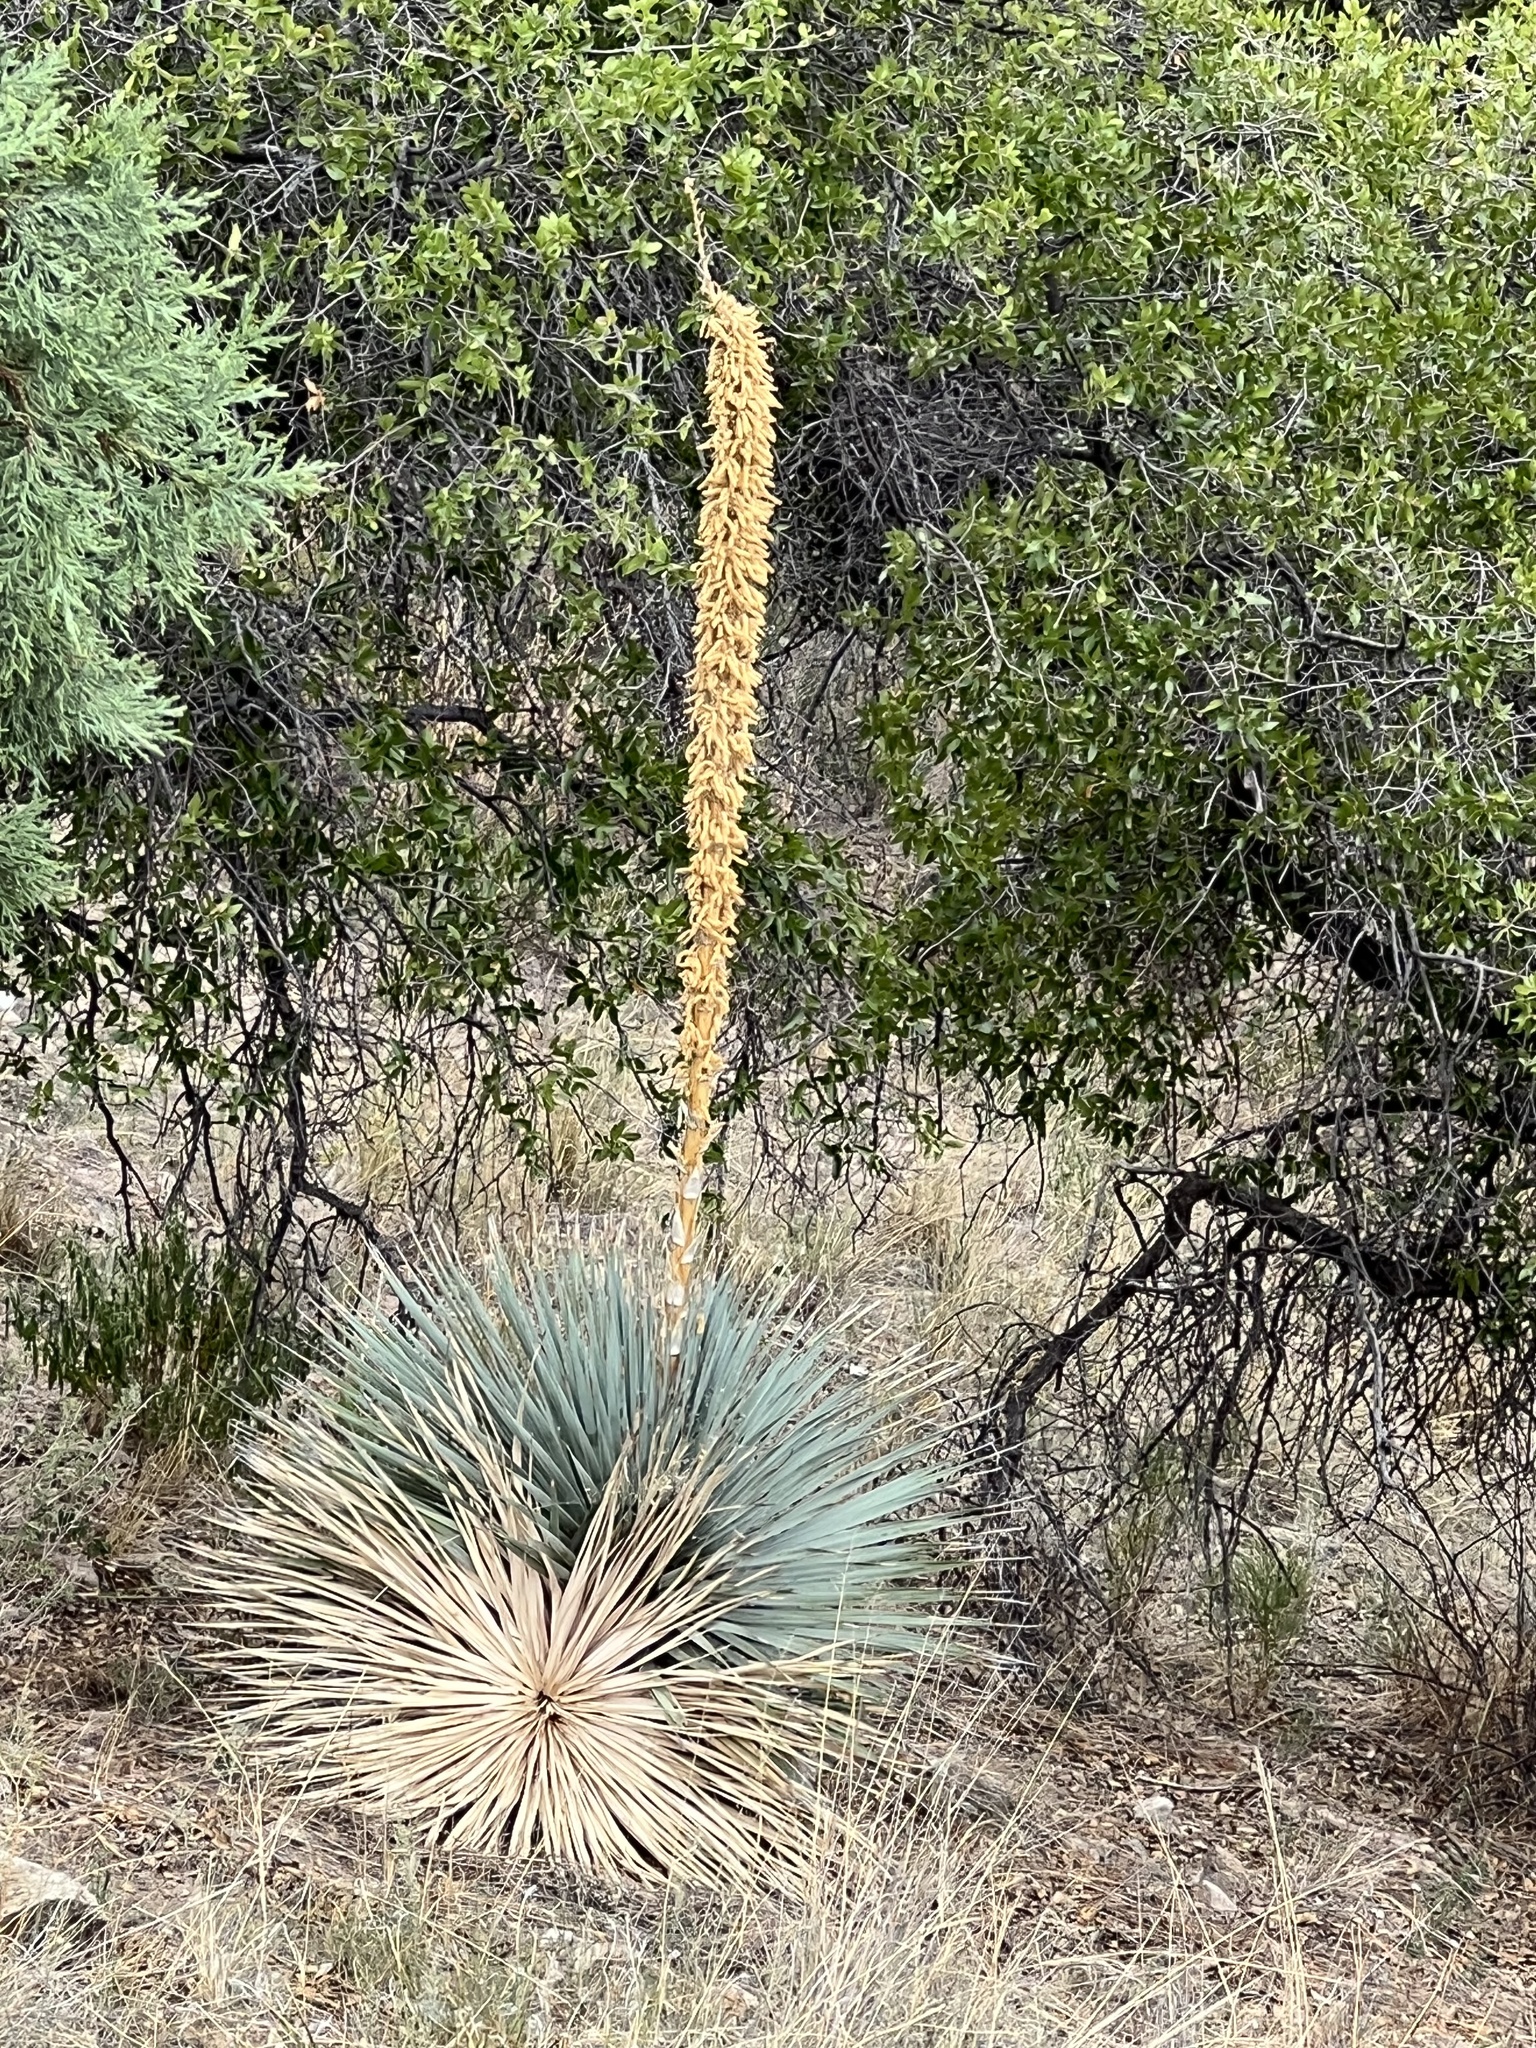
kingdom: Plantae
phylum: Tracheophyta
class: Liliopsida
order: Asparagales
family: Asparagaceae
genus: Dasylirion
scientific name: Dasylirion wheeleri
